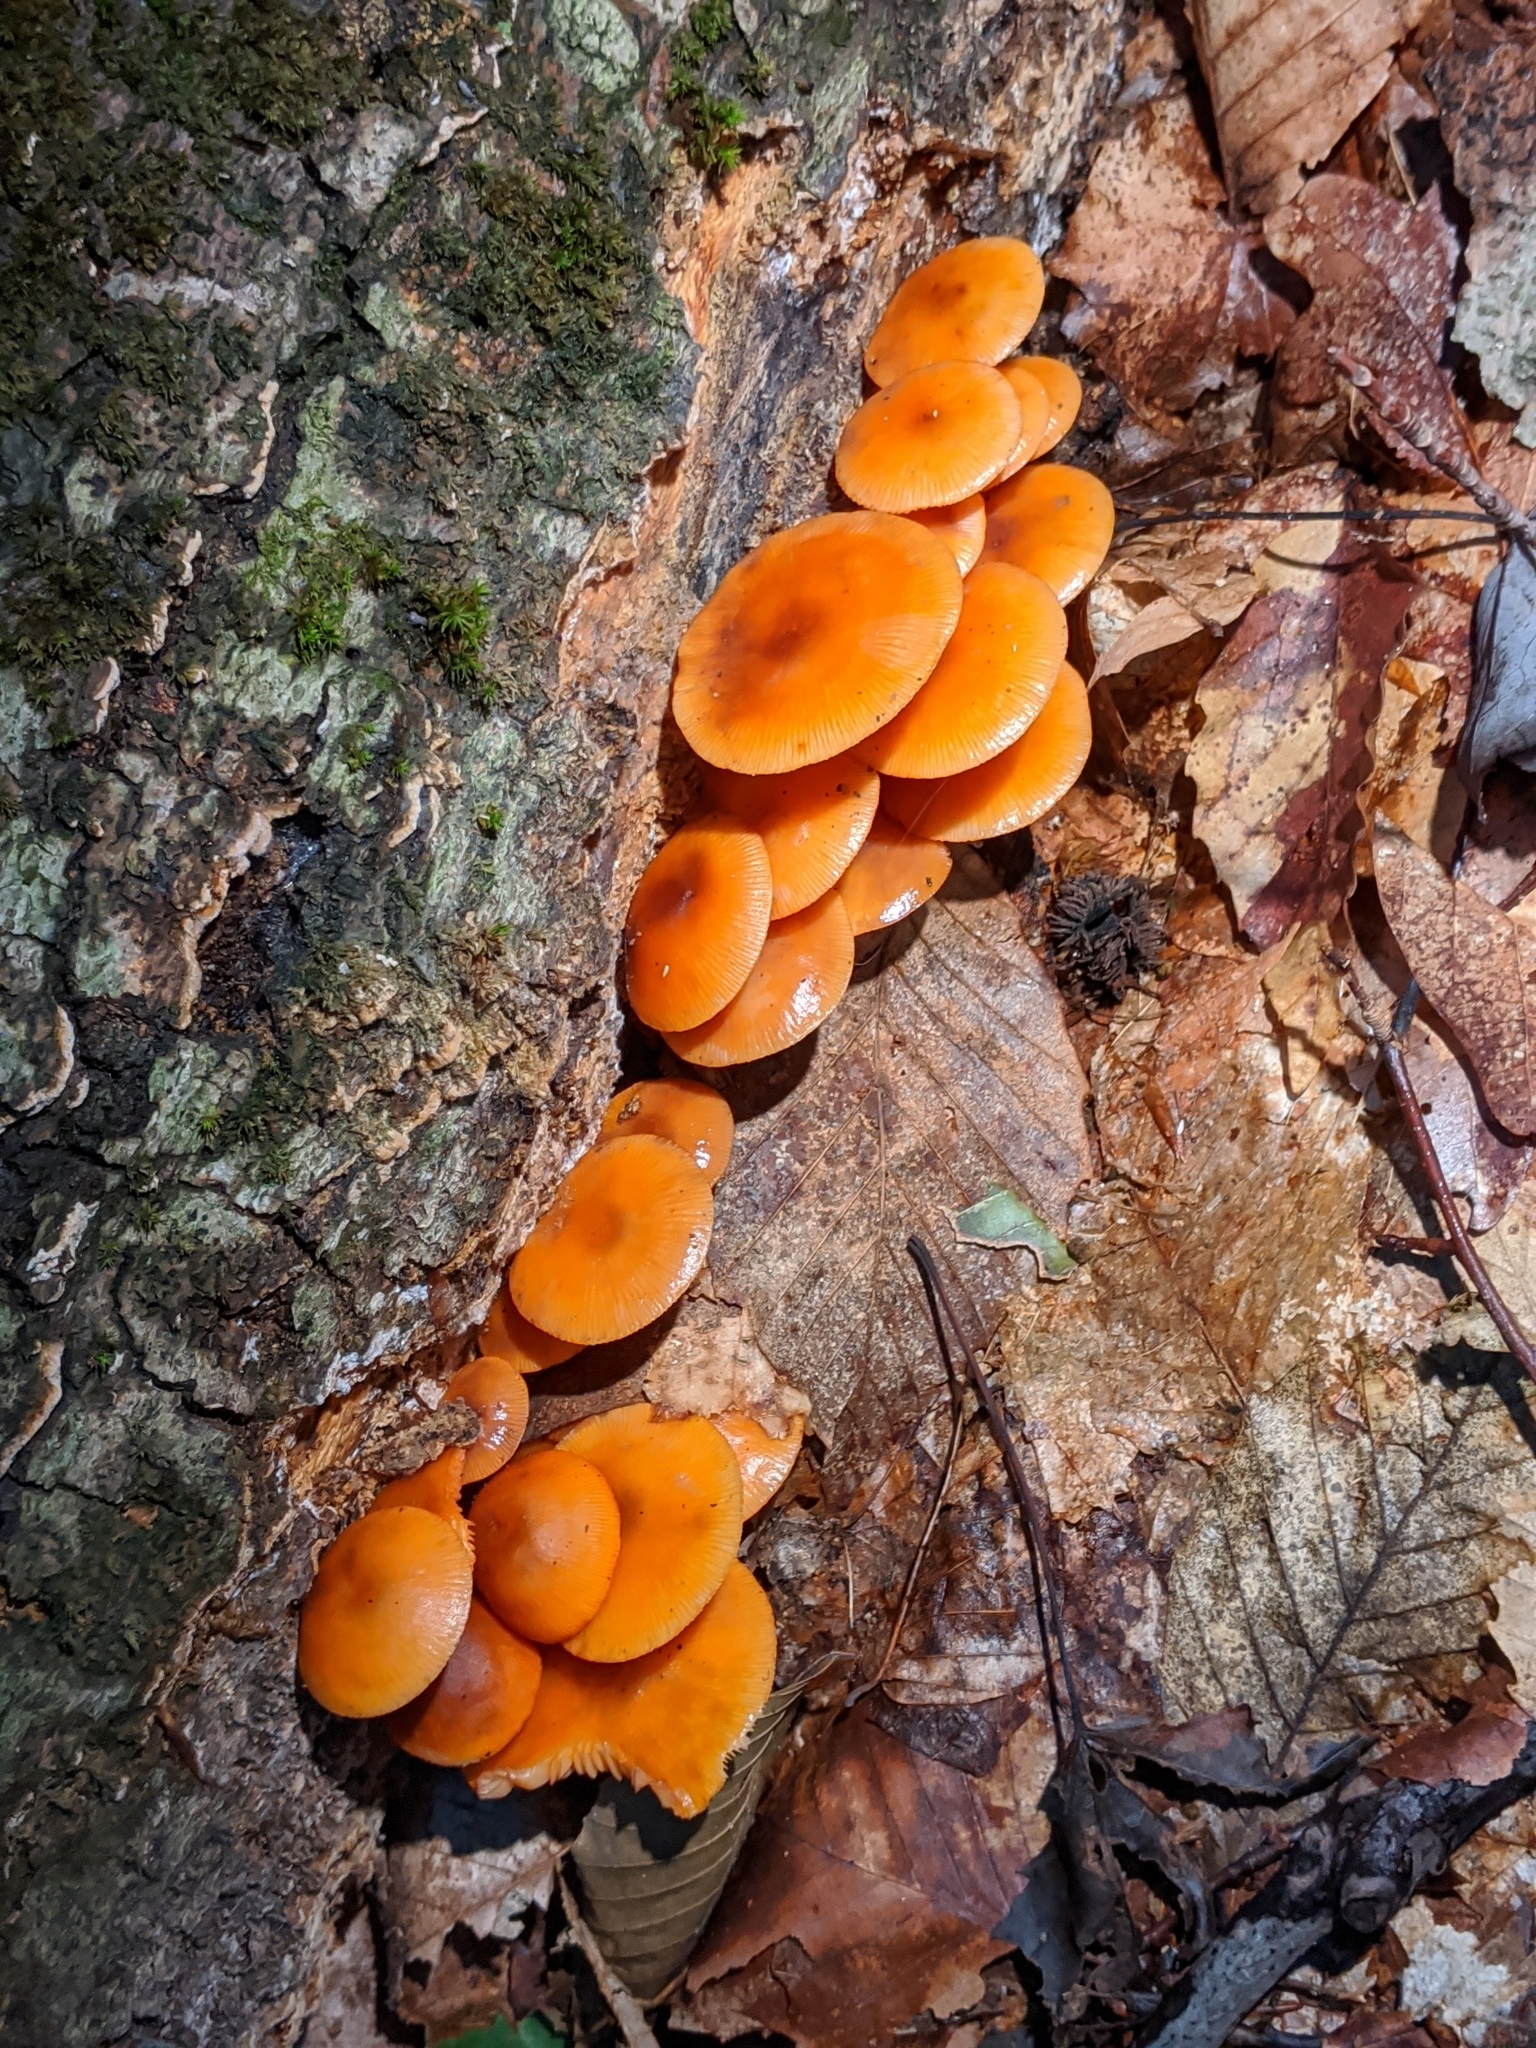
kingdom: Fungi
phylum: Basidiomycota
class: Agaricomycetes
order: Agaricales
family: Mycenaceae
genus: Mycena
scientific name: Mycena leaiana
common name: Orange mycena
